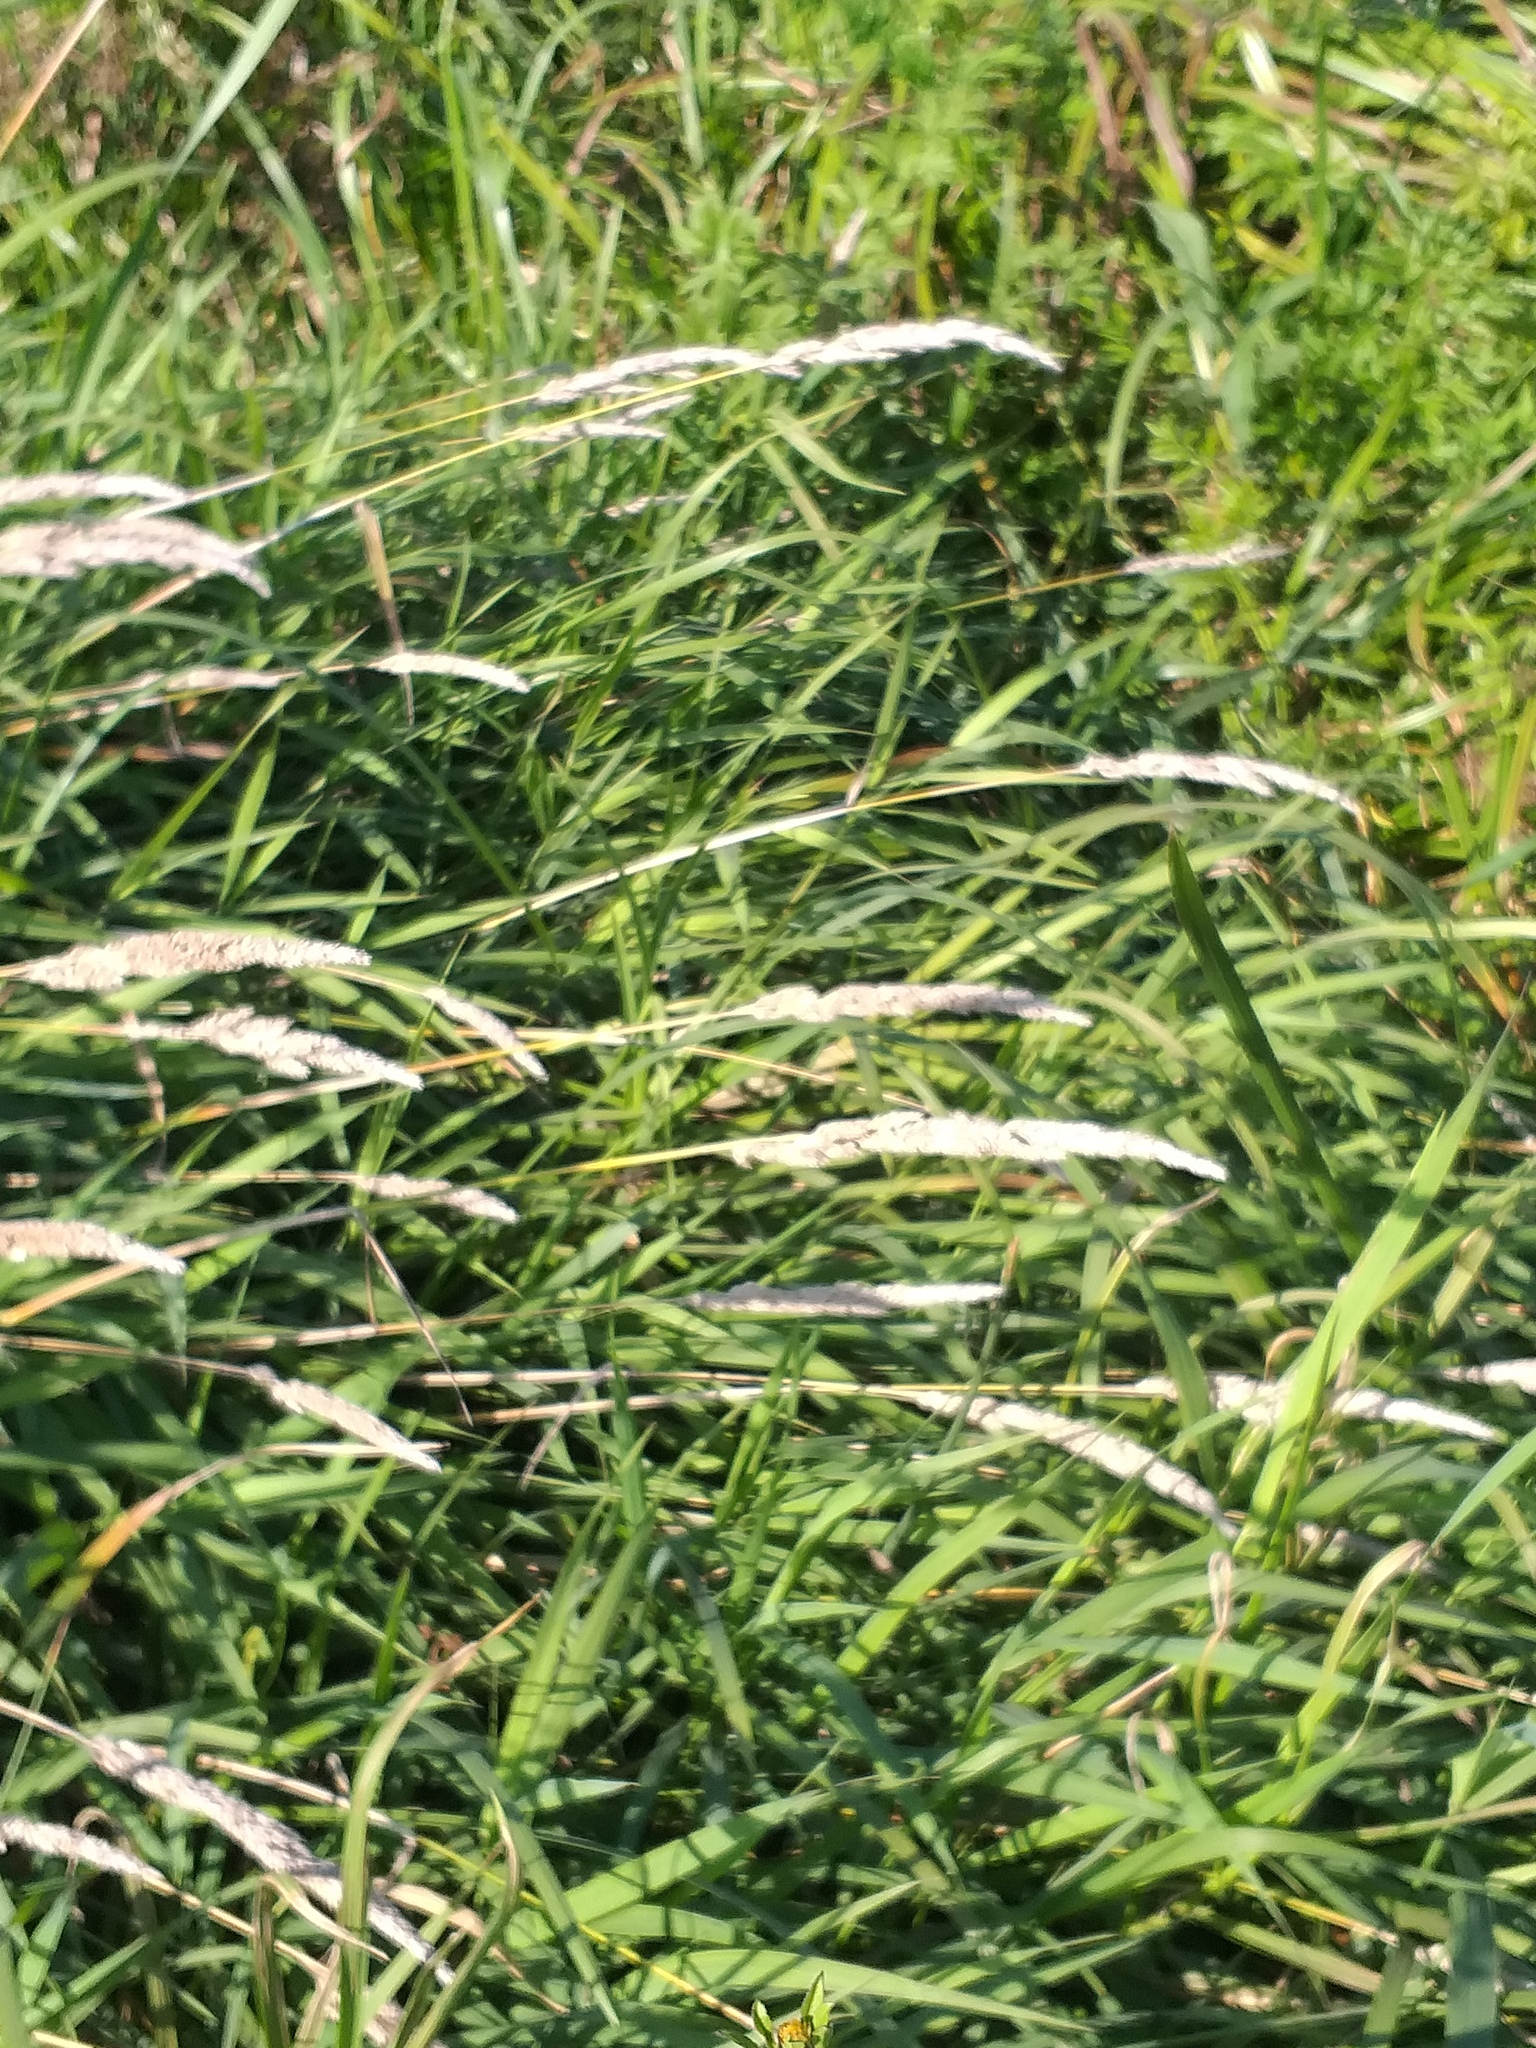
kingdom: Plantae
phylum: Tracheophyta
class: Liliopsida
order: Poales
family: Poaceae
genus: Phalaris
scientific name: Phalaris arundinacea
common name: Reed canary-grass
